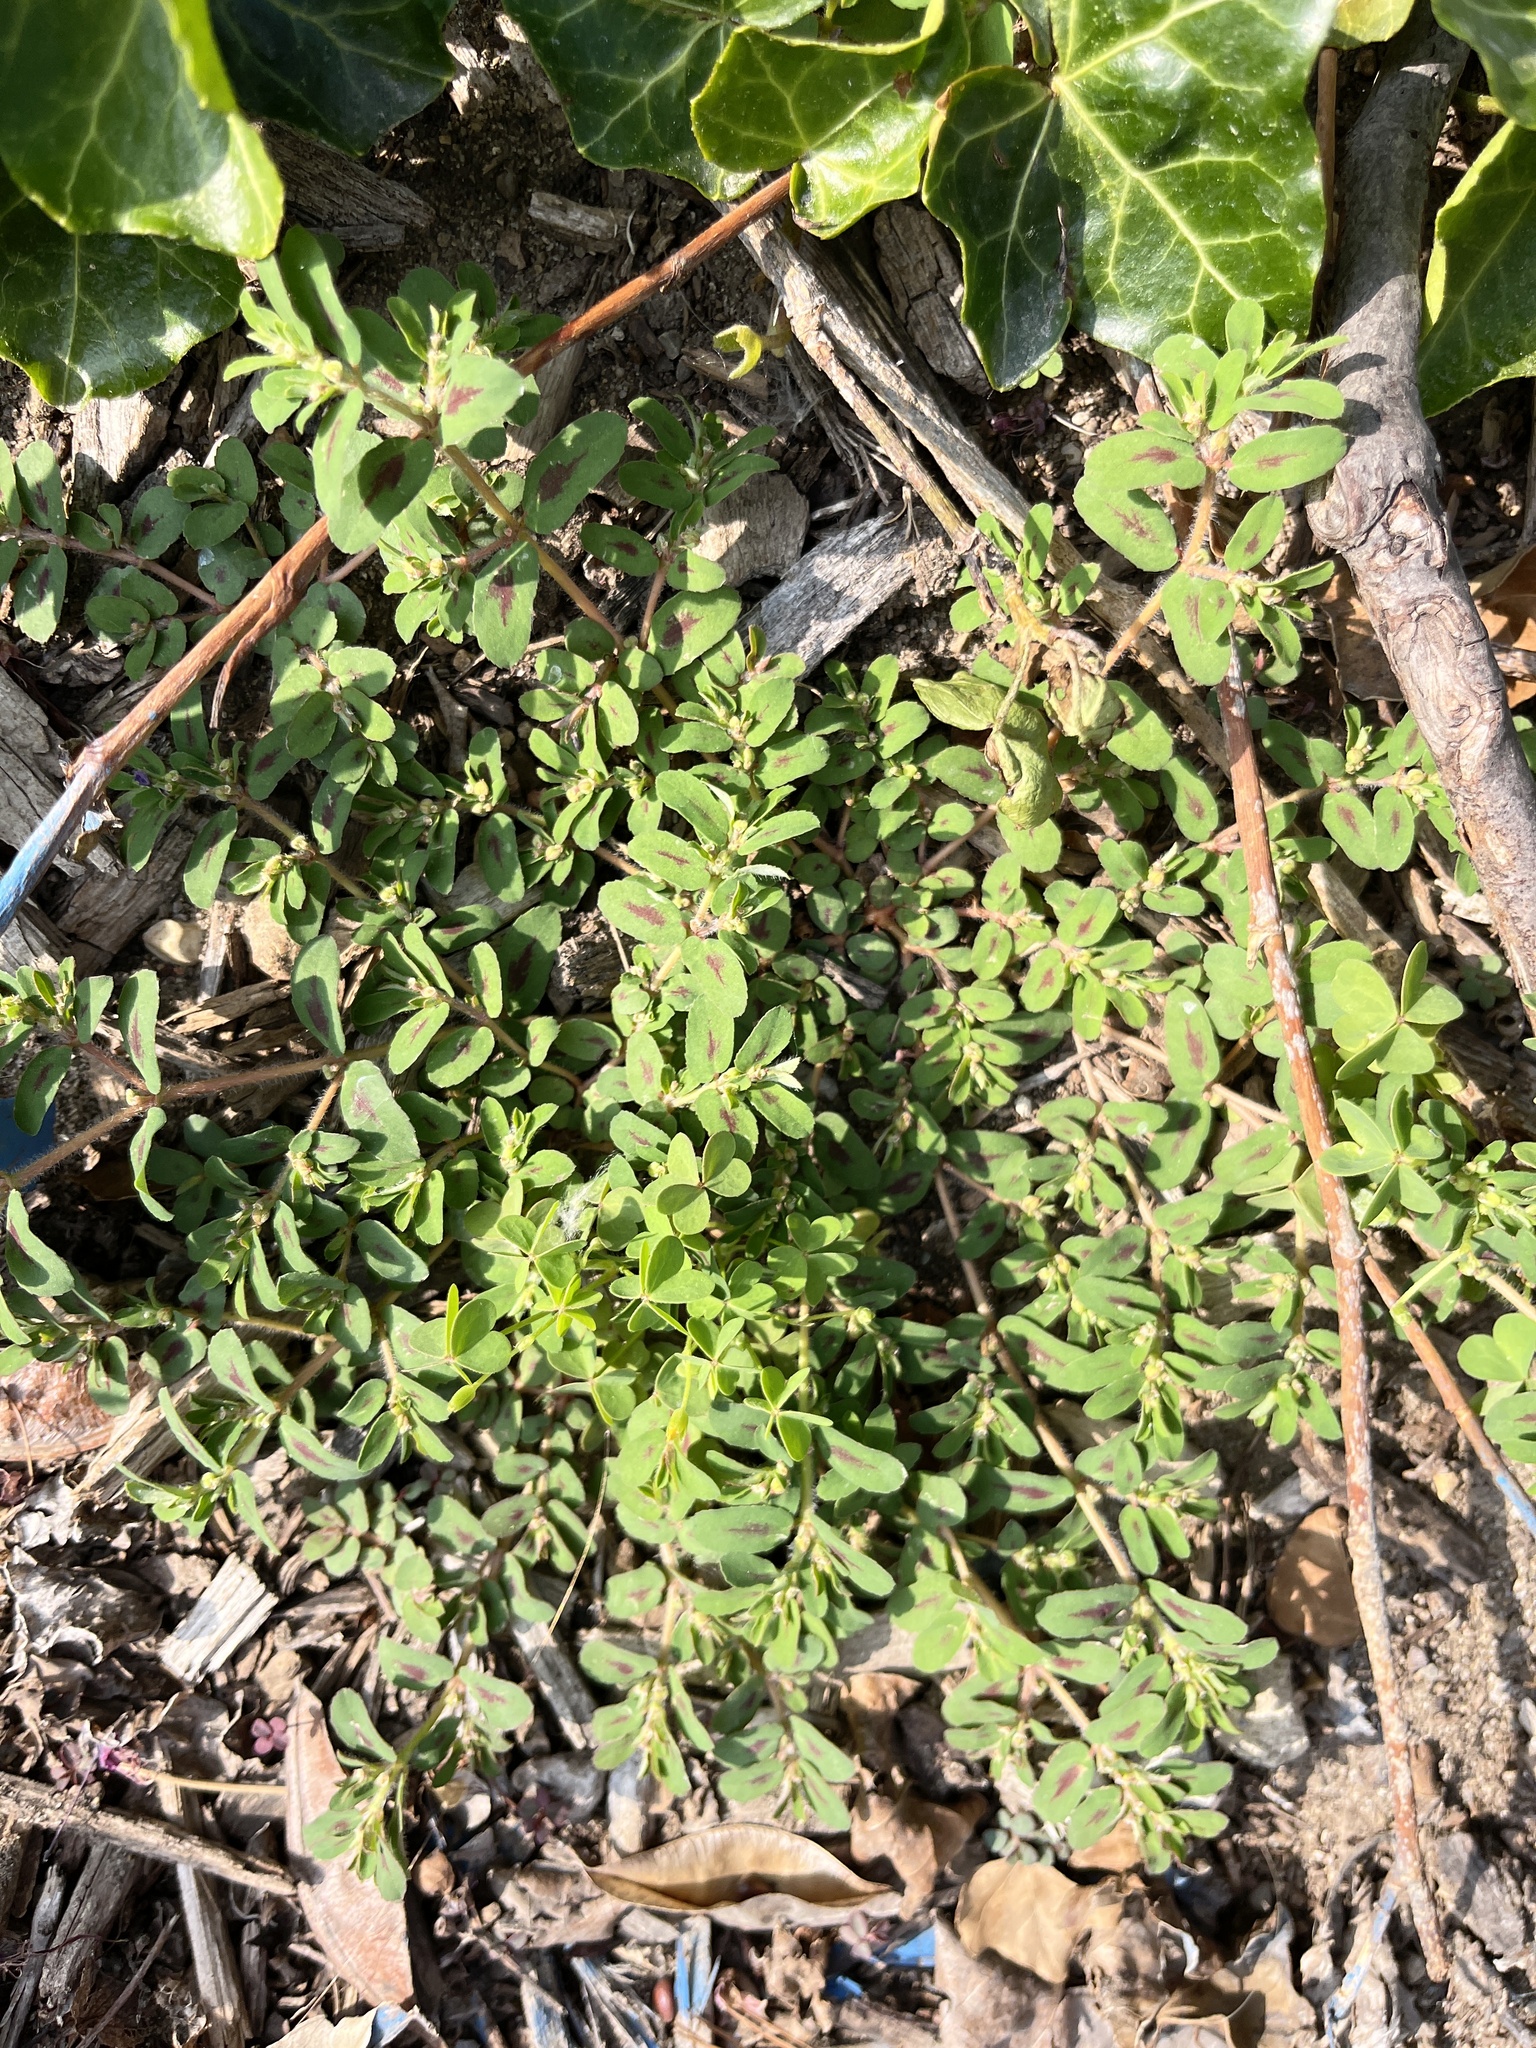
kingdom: Plantae
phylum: Tracheophyta
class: Magnoliopsida
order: Malpighiales
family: Euphorbiaceae
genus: Euphorbia
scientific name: Euphorbia maculata
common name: Spotted spurge
